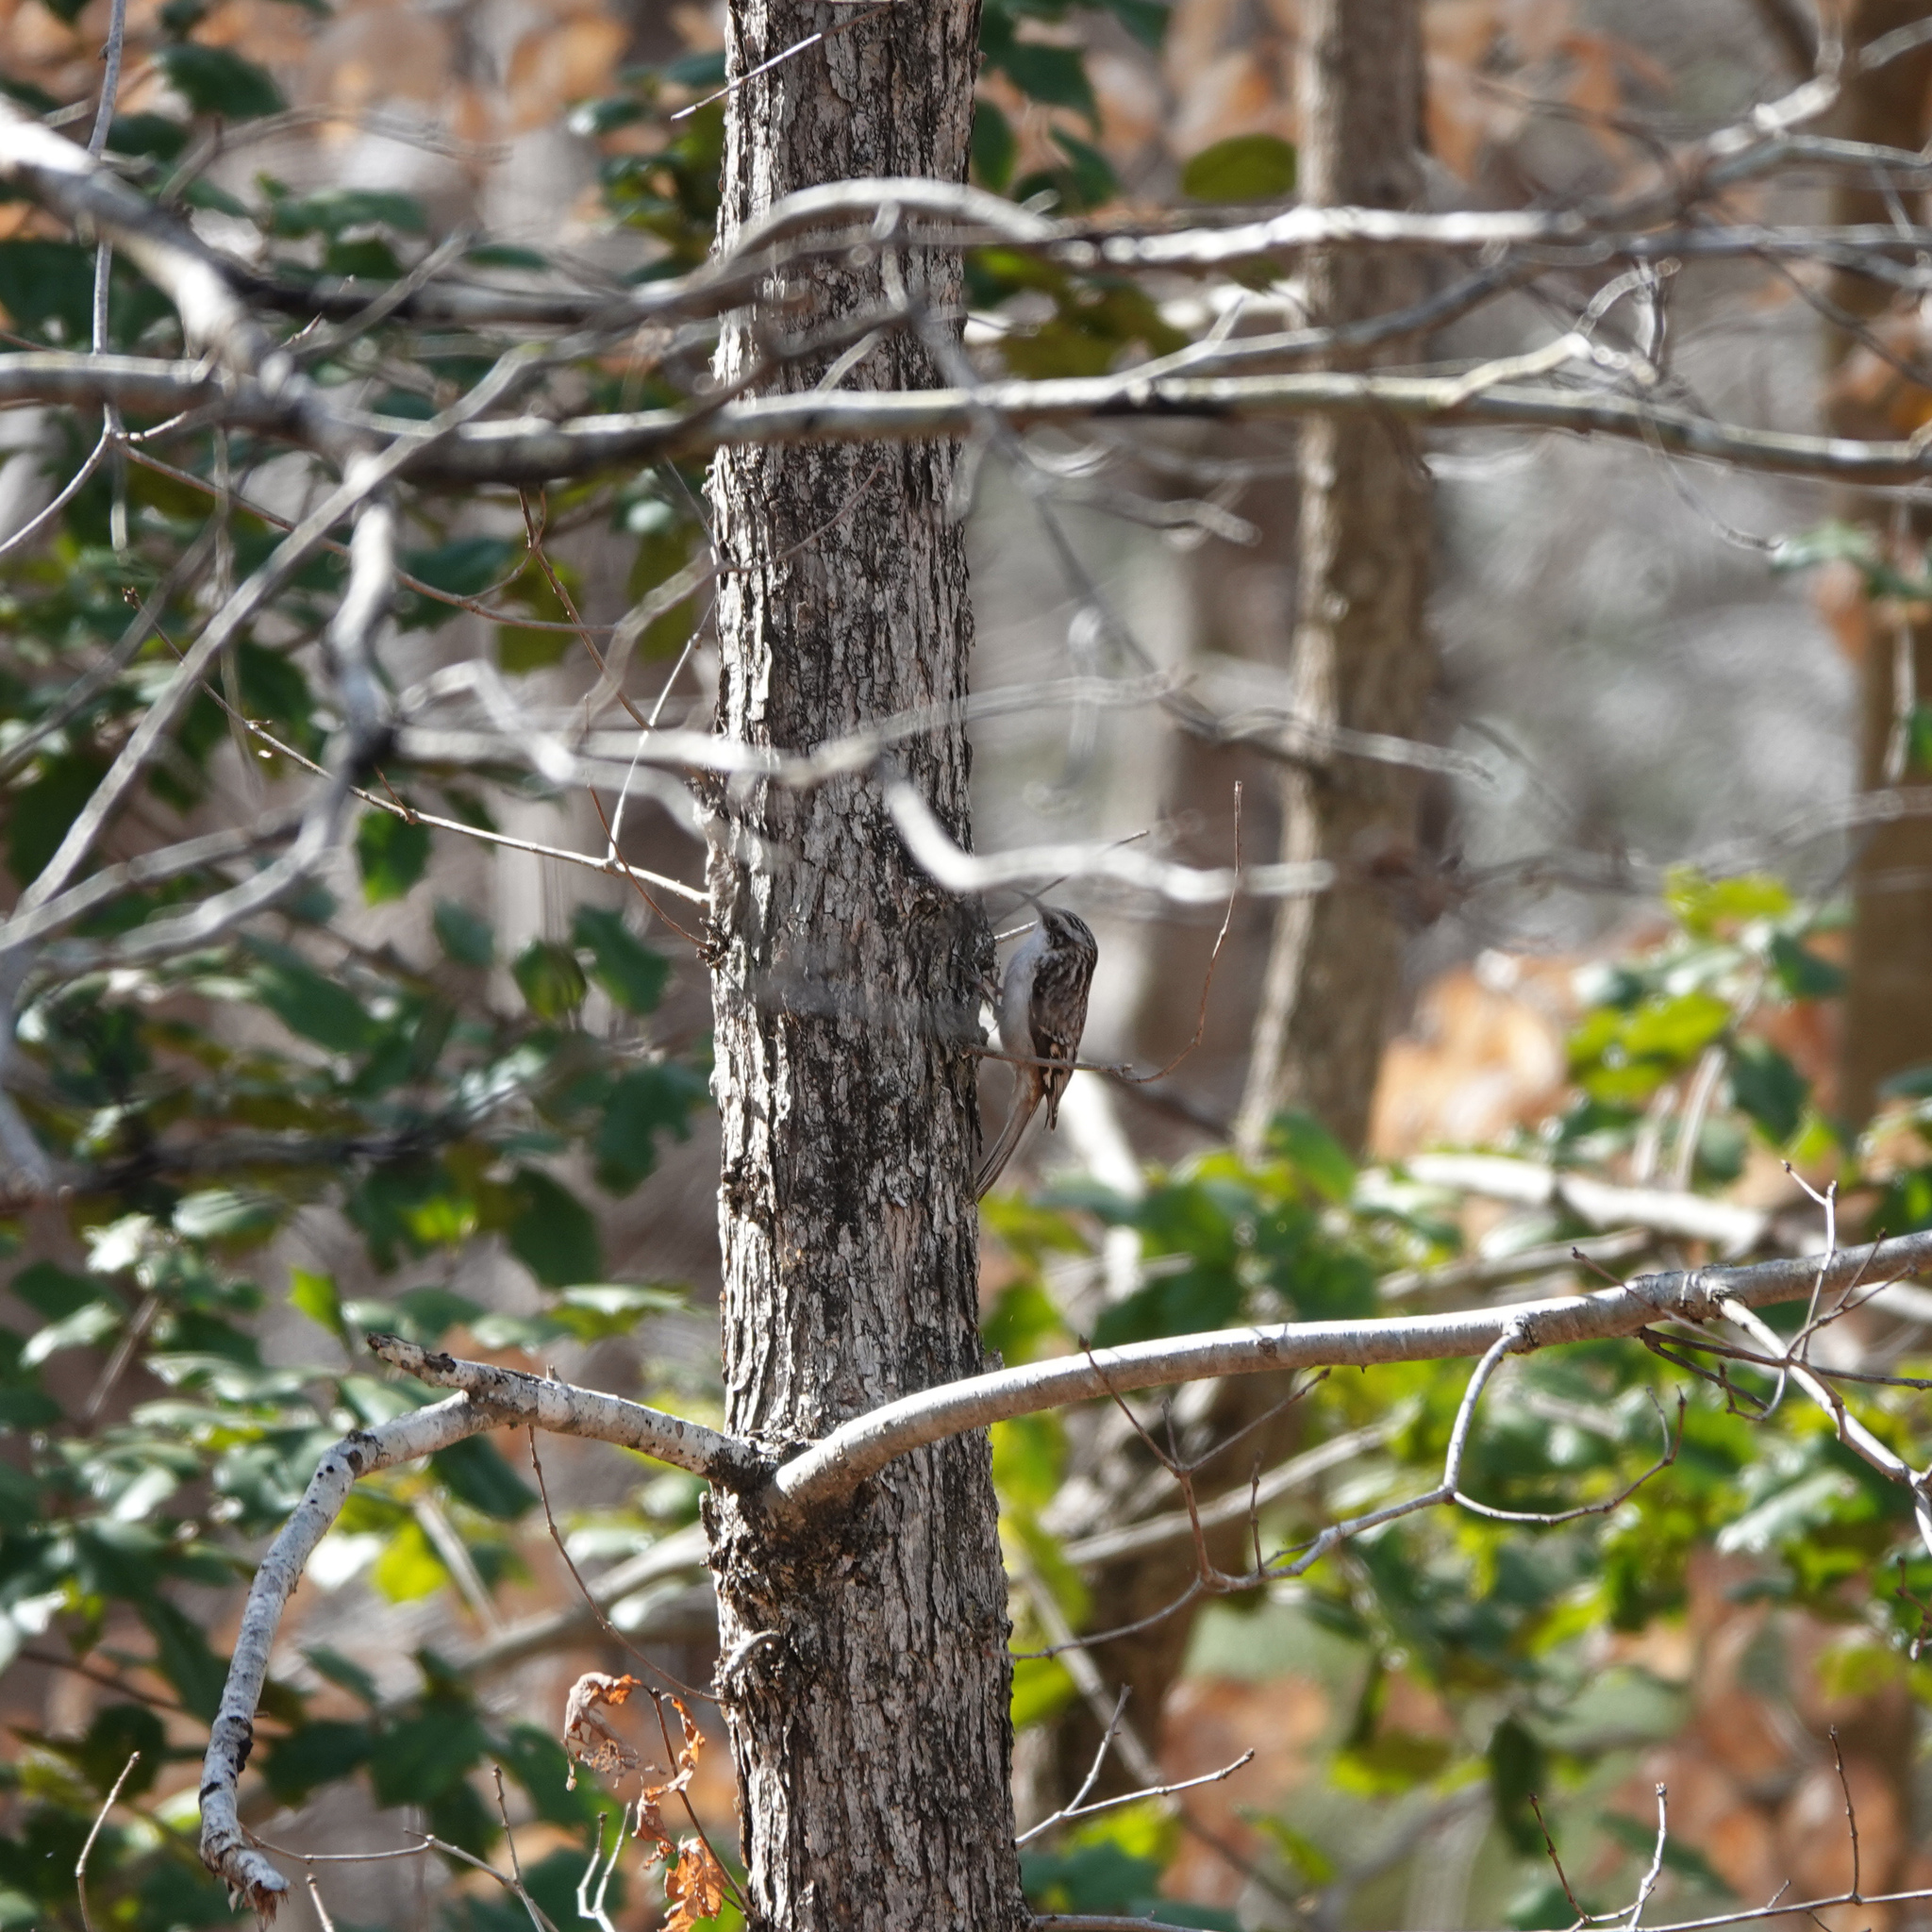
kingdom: Animalia
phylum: Chordata
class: Aves
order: Passeriformes
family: Certhiidae
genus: Certhia
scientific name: Certhia americana
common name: Brown creeper
